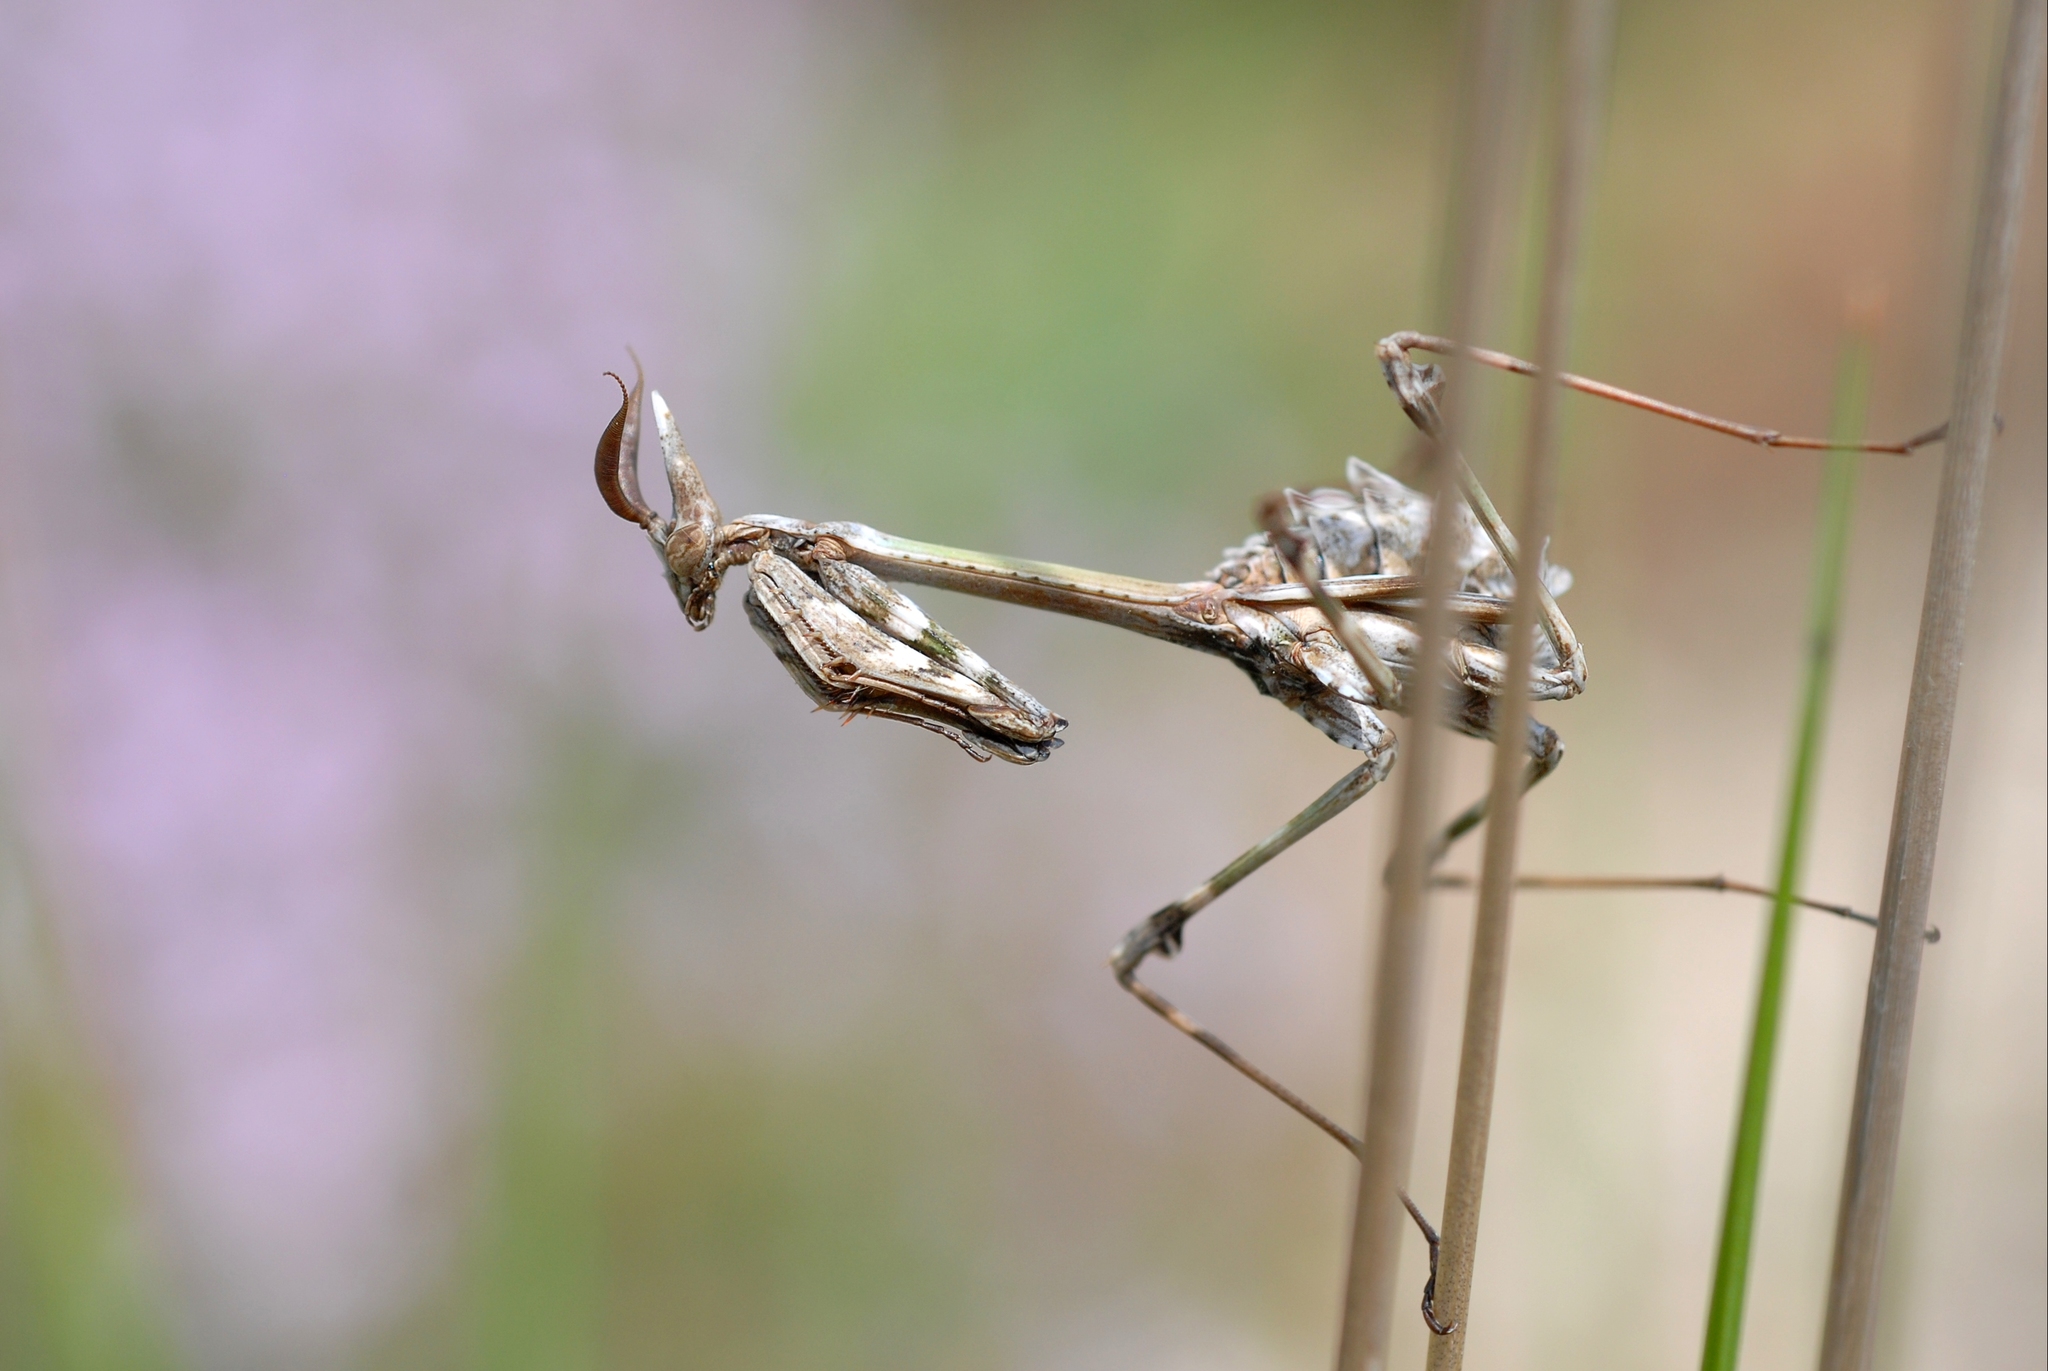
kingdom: Animalia
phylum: Arthropoda
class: Insecta
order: Mantodea
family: Empusidae
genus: Empusa
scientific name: Empusa pennata
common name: Conehead mantis
